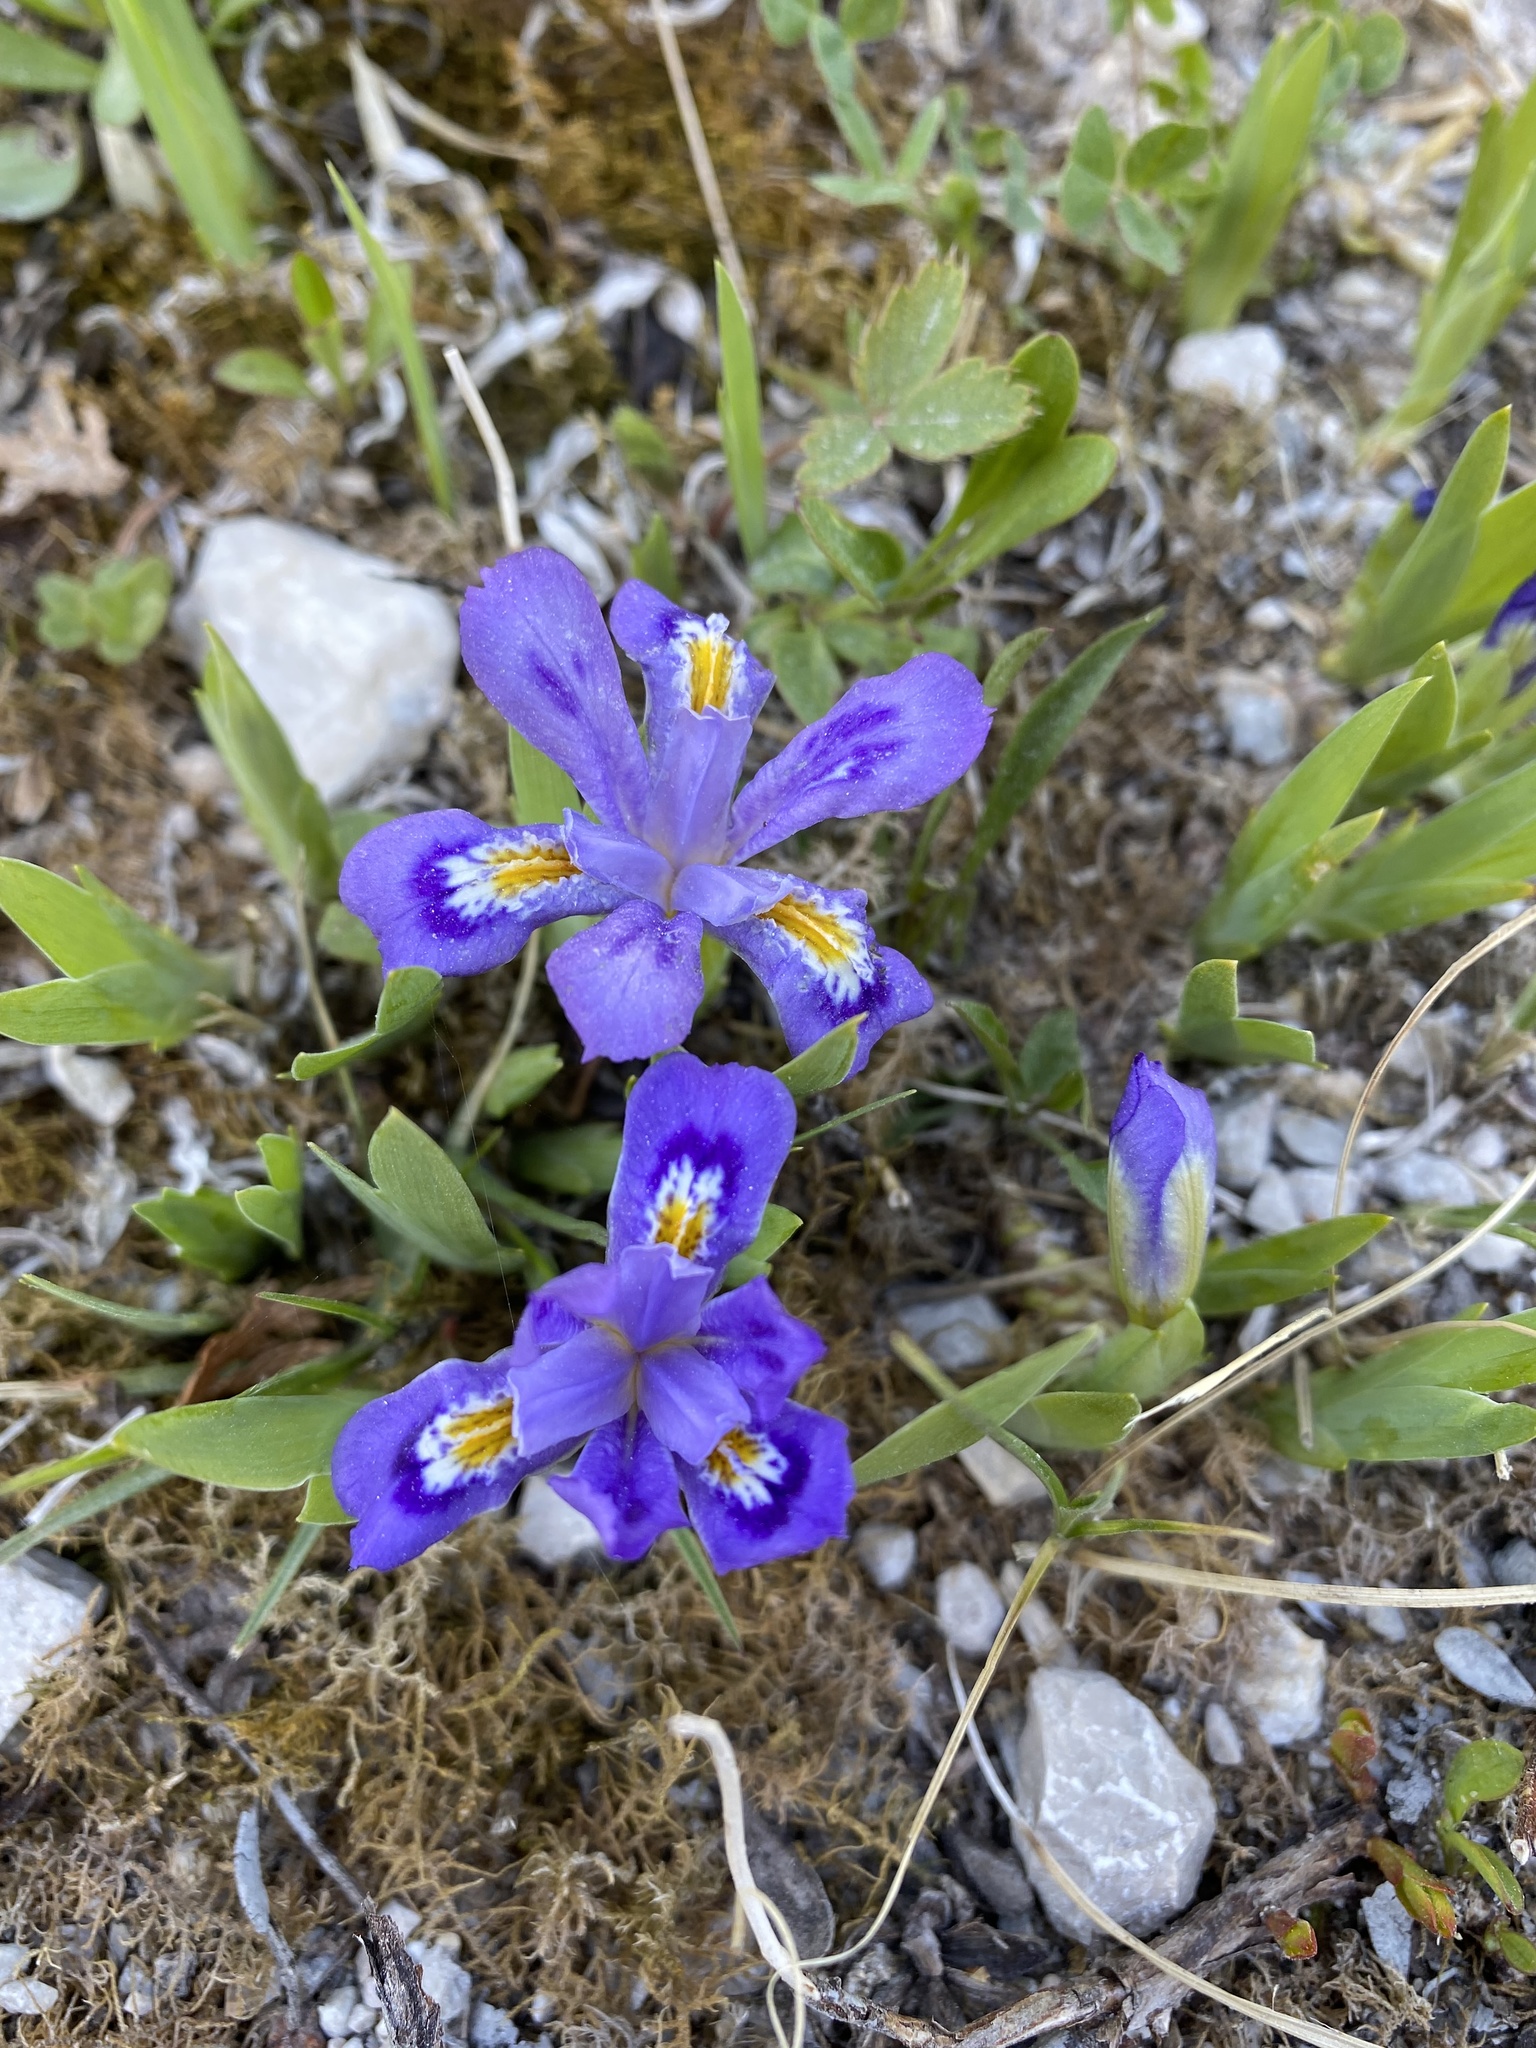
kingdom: Plantae
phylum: Tracheophyta
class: Liliopsida
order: Asparagales
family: Iridaceae
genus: Iris
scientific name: Iris lacustris
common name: Dwarf lake iris
